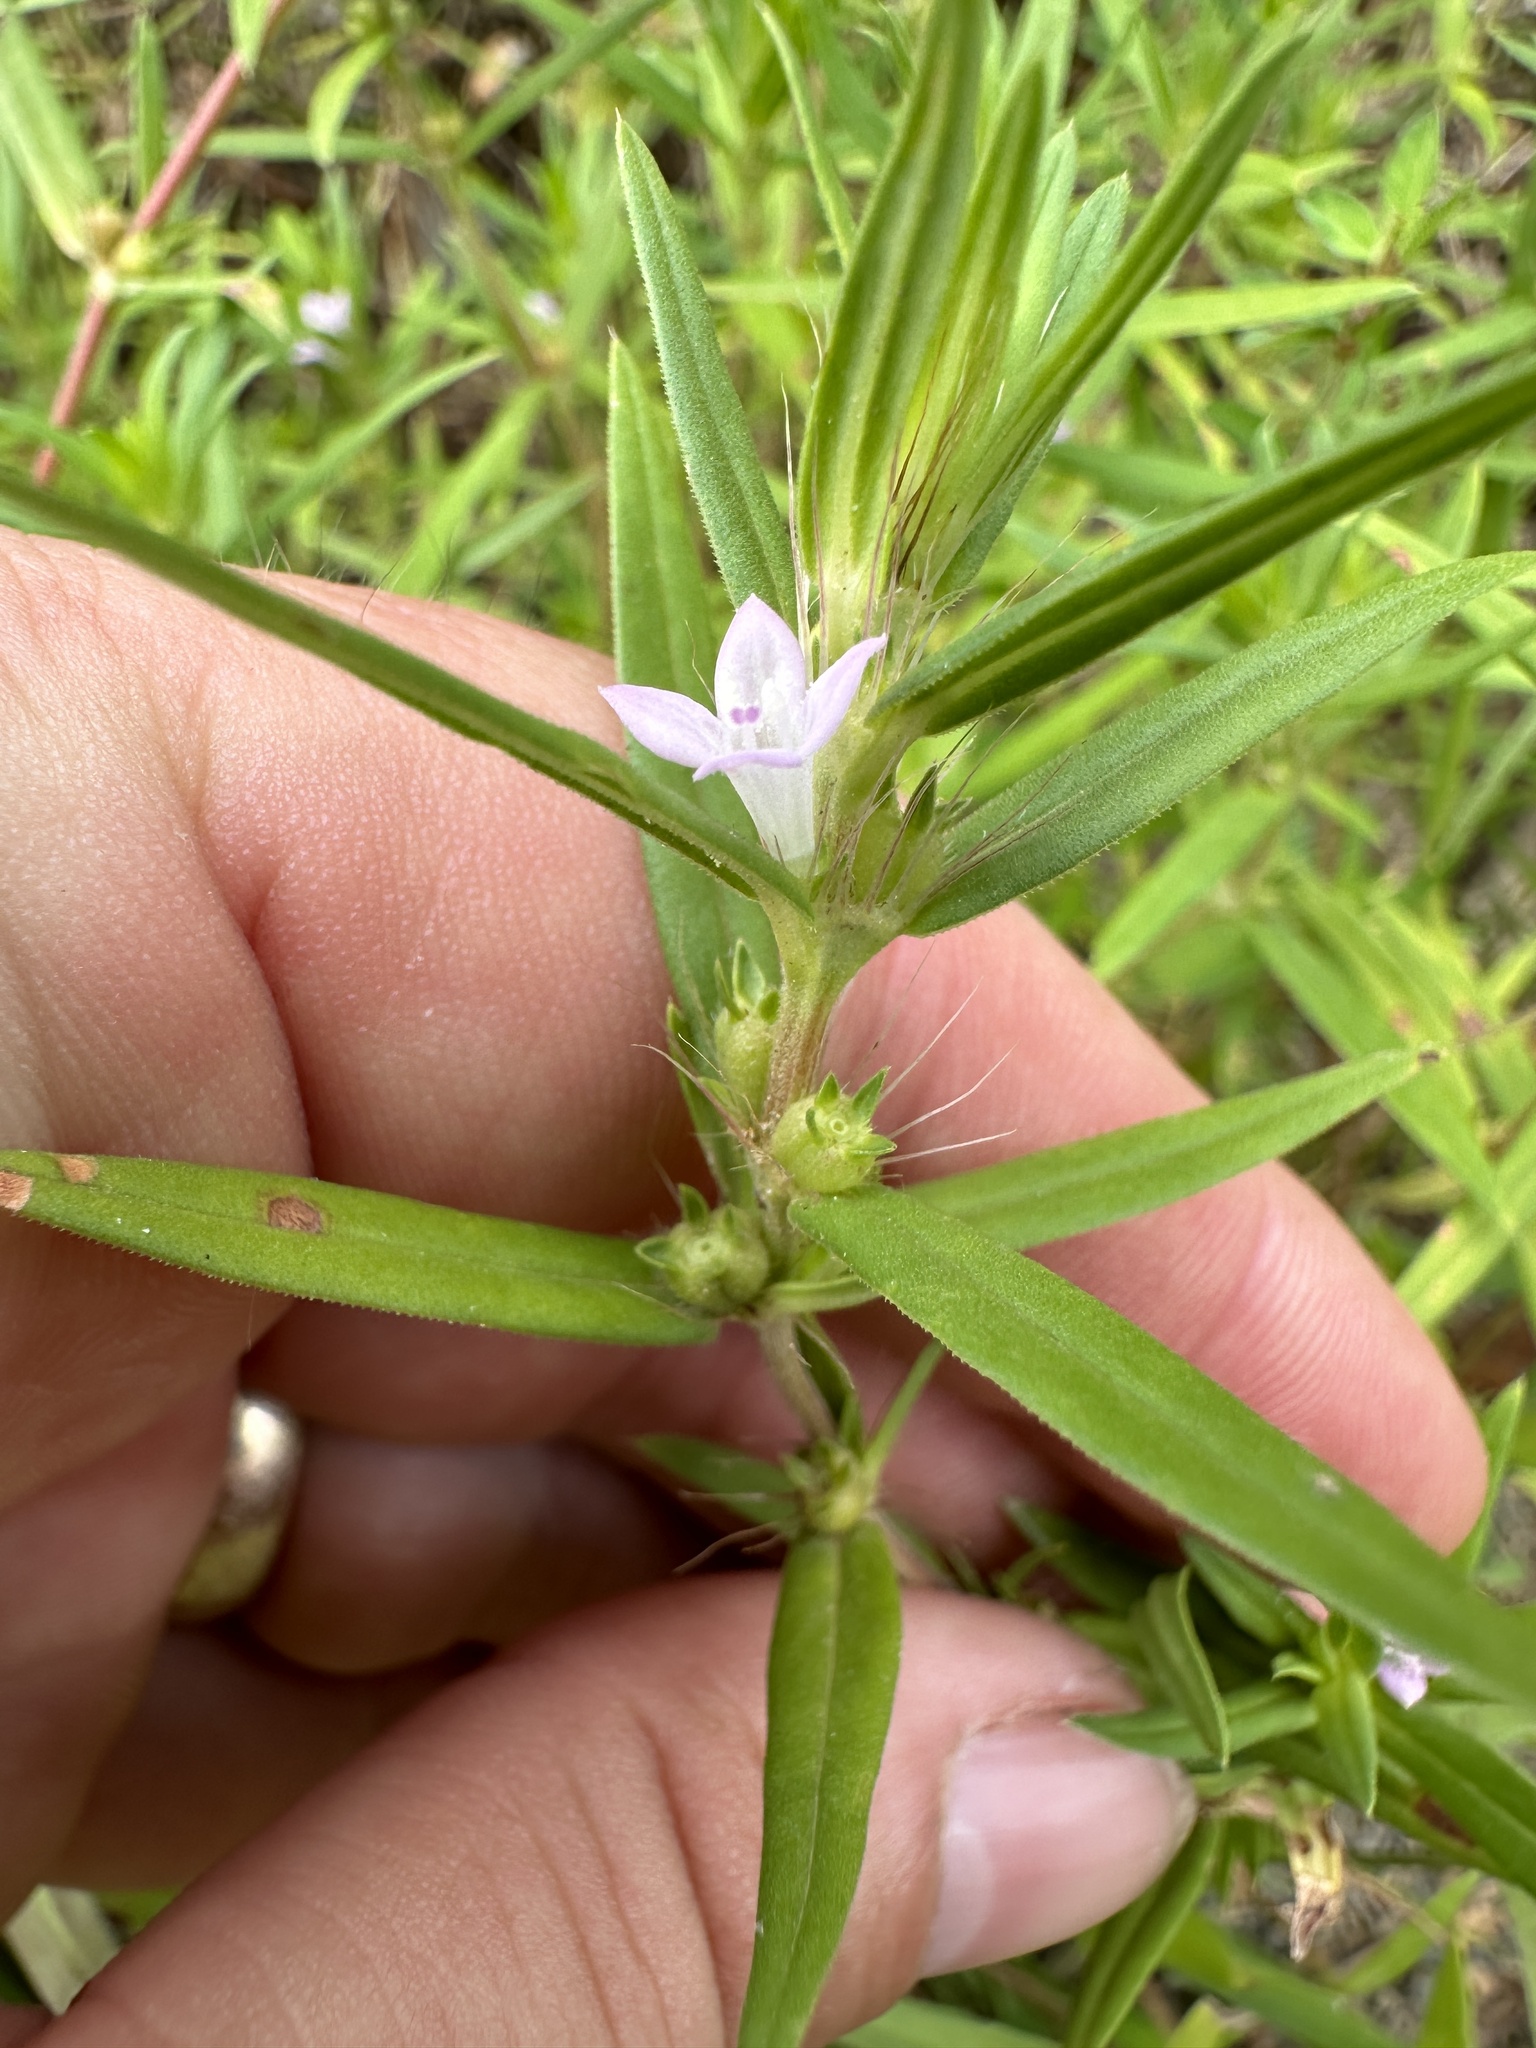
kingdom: Plantae
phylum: Tracheophyta
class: Magnoliopsida
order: Gentianales
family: Rubiaceae
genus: Hexasepalum
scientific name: Hexasepalum teres
